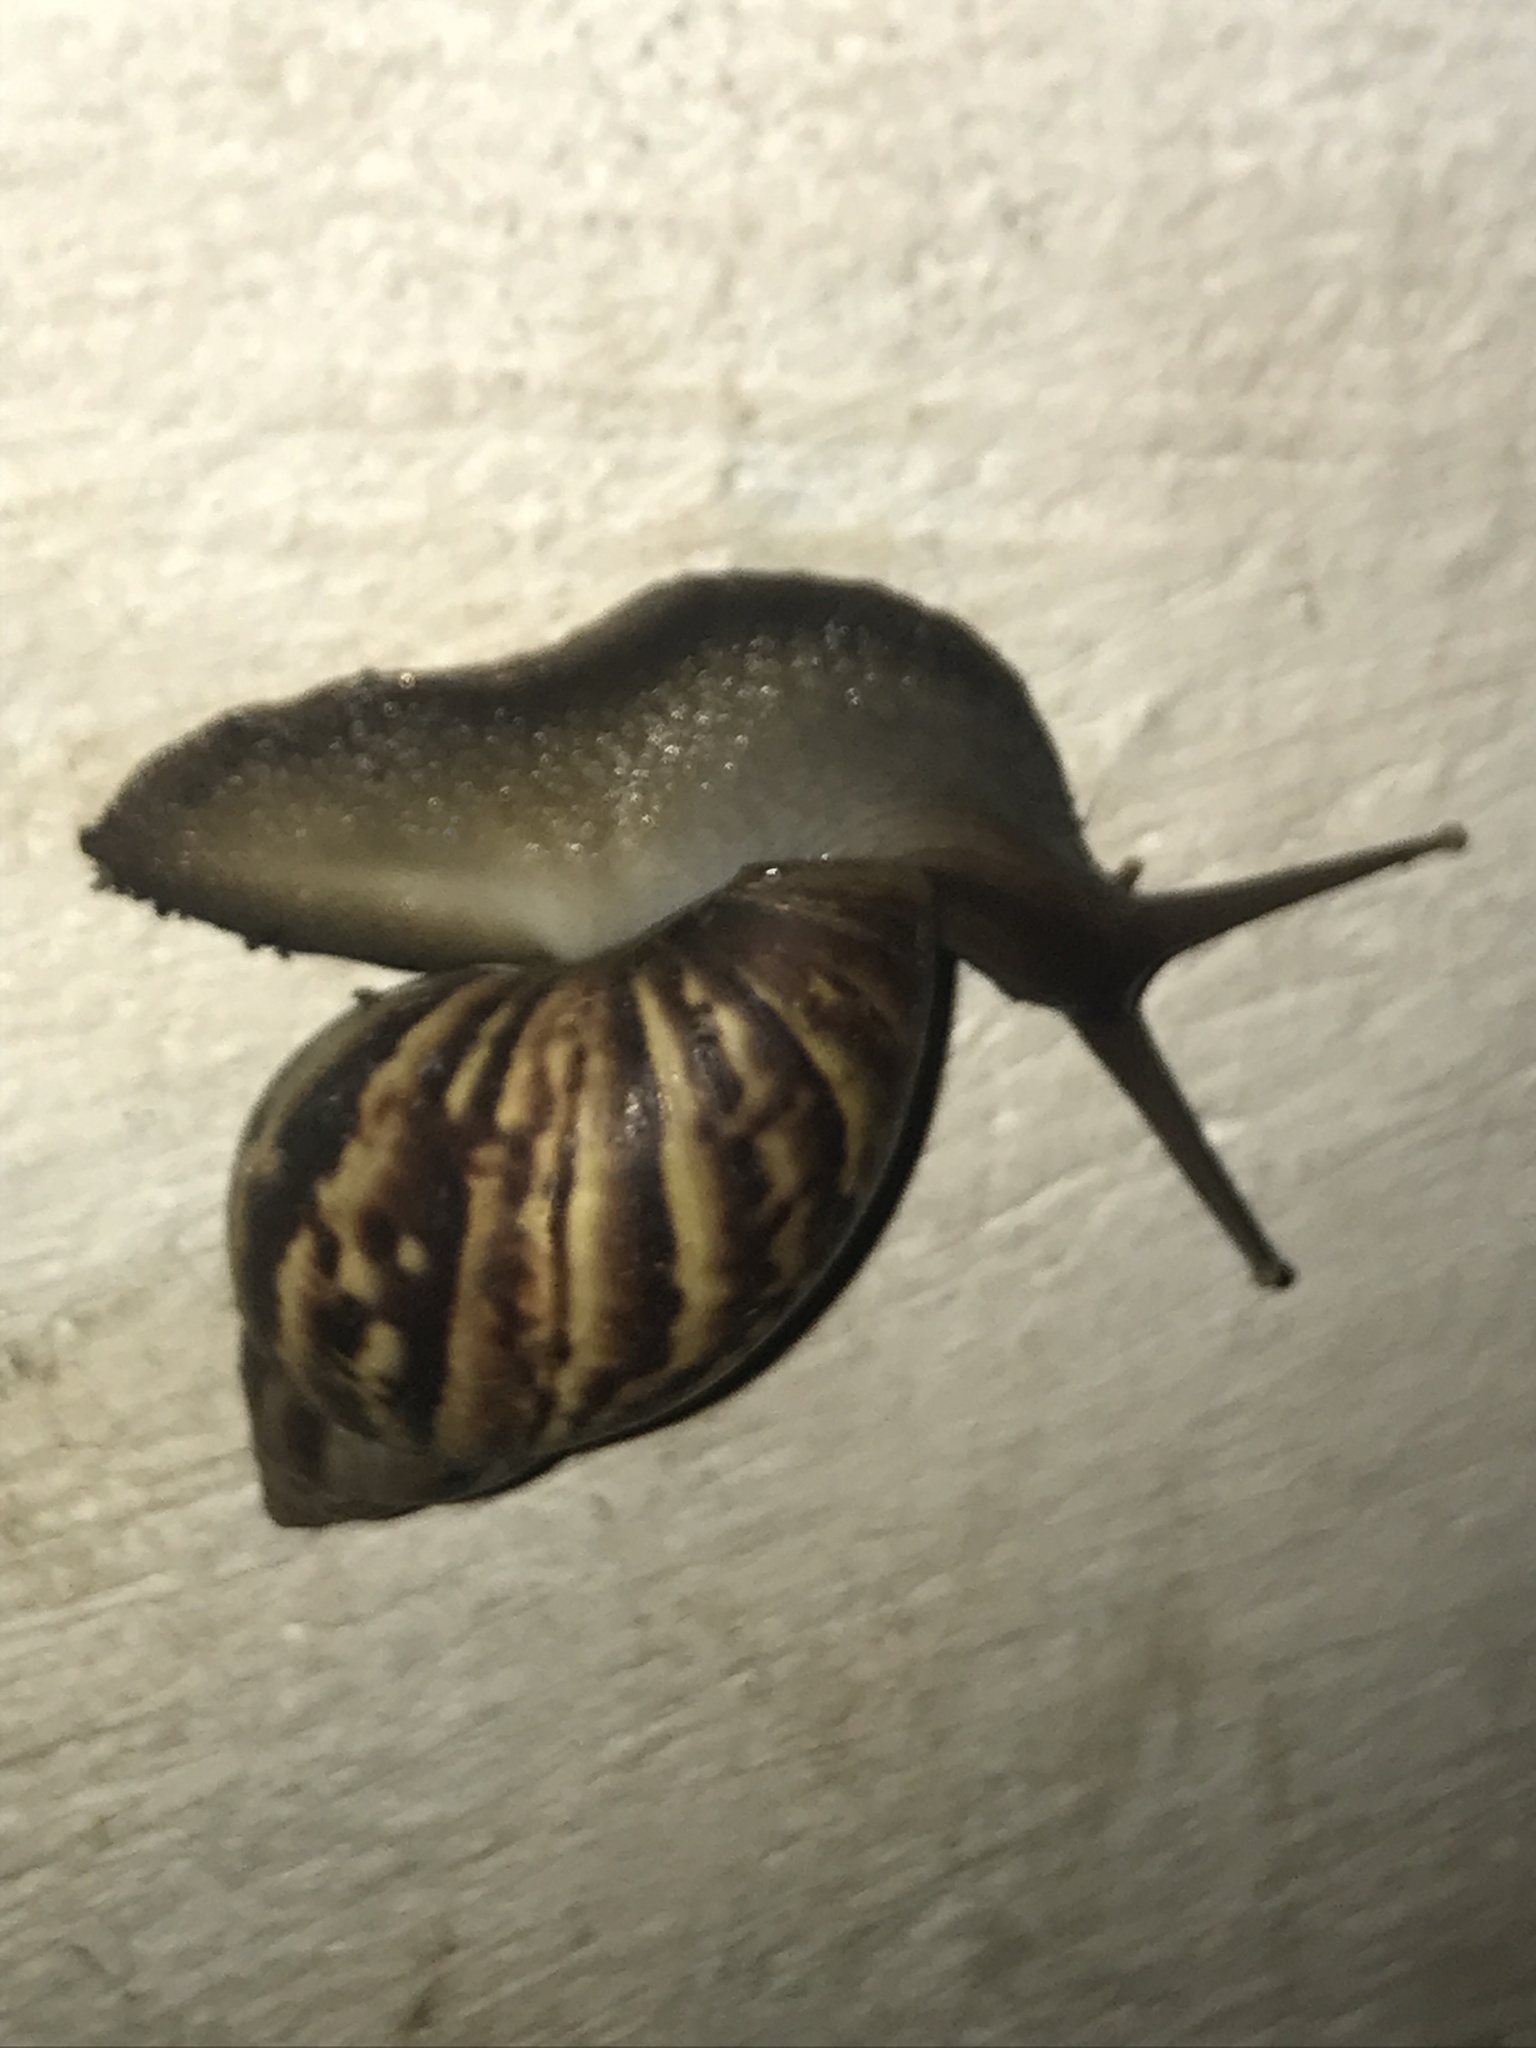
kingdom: Animalia
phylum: Mollusca
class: Gastropoda
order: Stylommatophora
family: Achatinidae
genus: Lissachatina
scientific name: Lissachatina fulica
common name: Giant african snail
